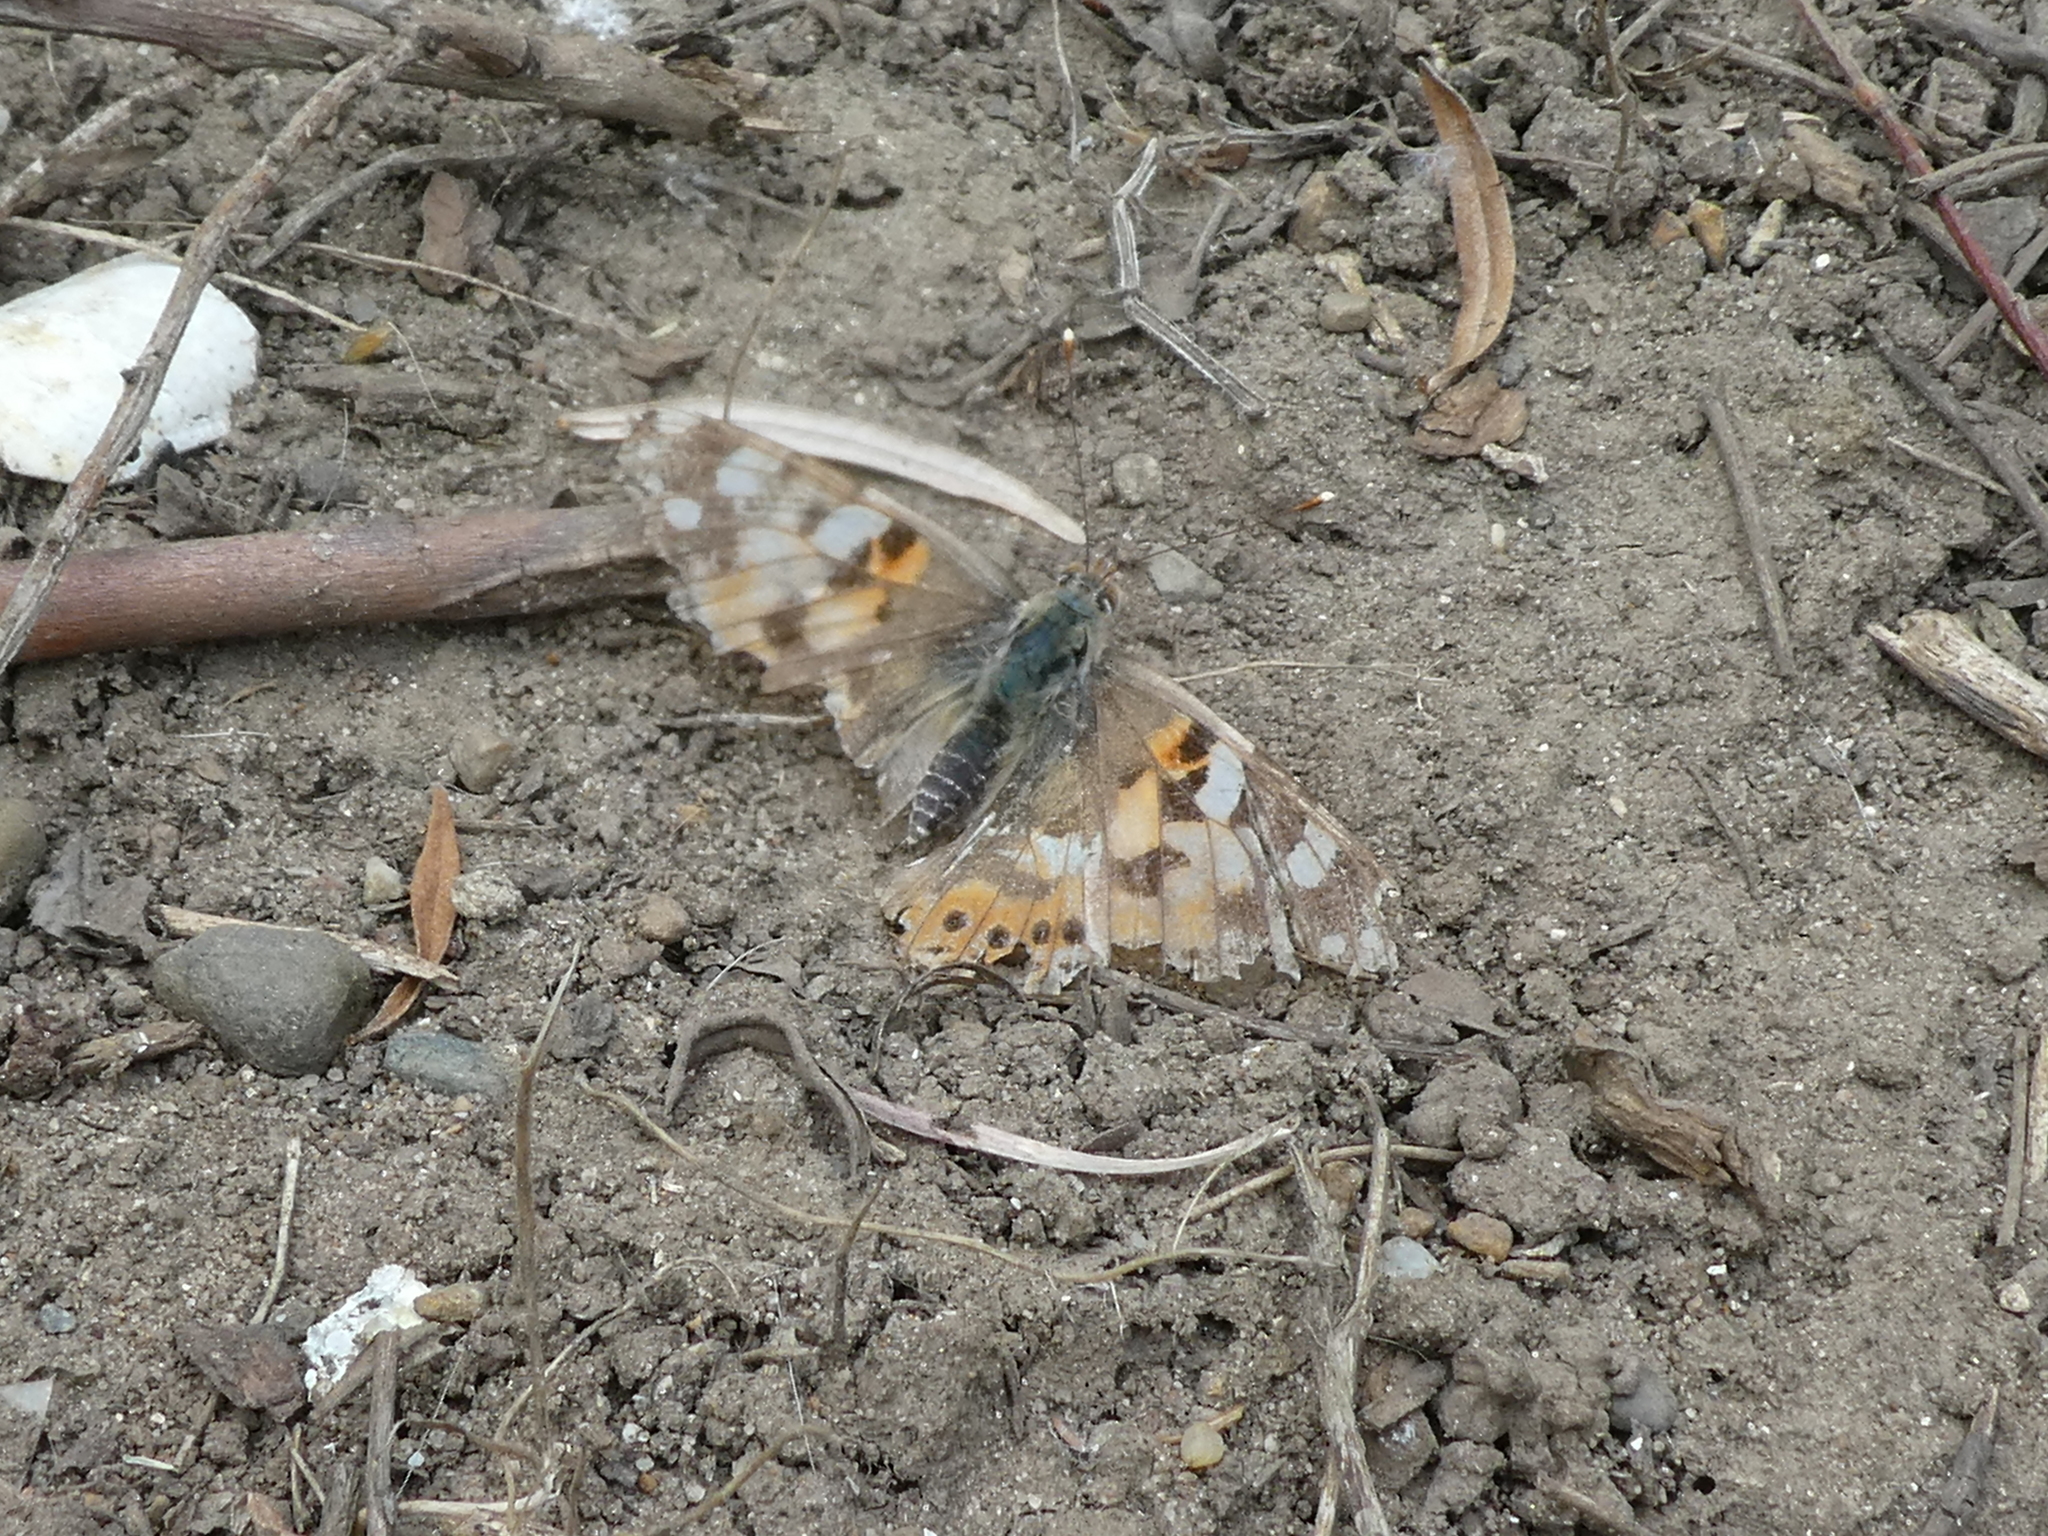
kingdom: Animalia
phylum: Arthropoda
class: Insecta
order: Lepidoptera
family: Nymphalidae
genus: Vanessa
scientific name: Vanessa cardui
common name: Painted lady
